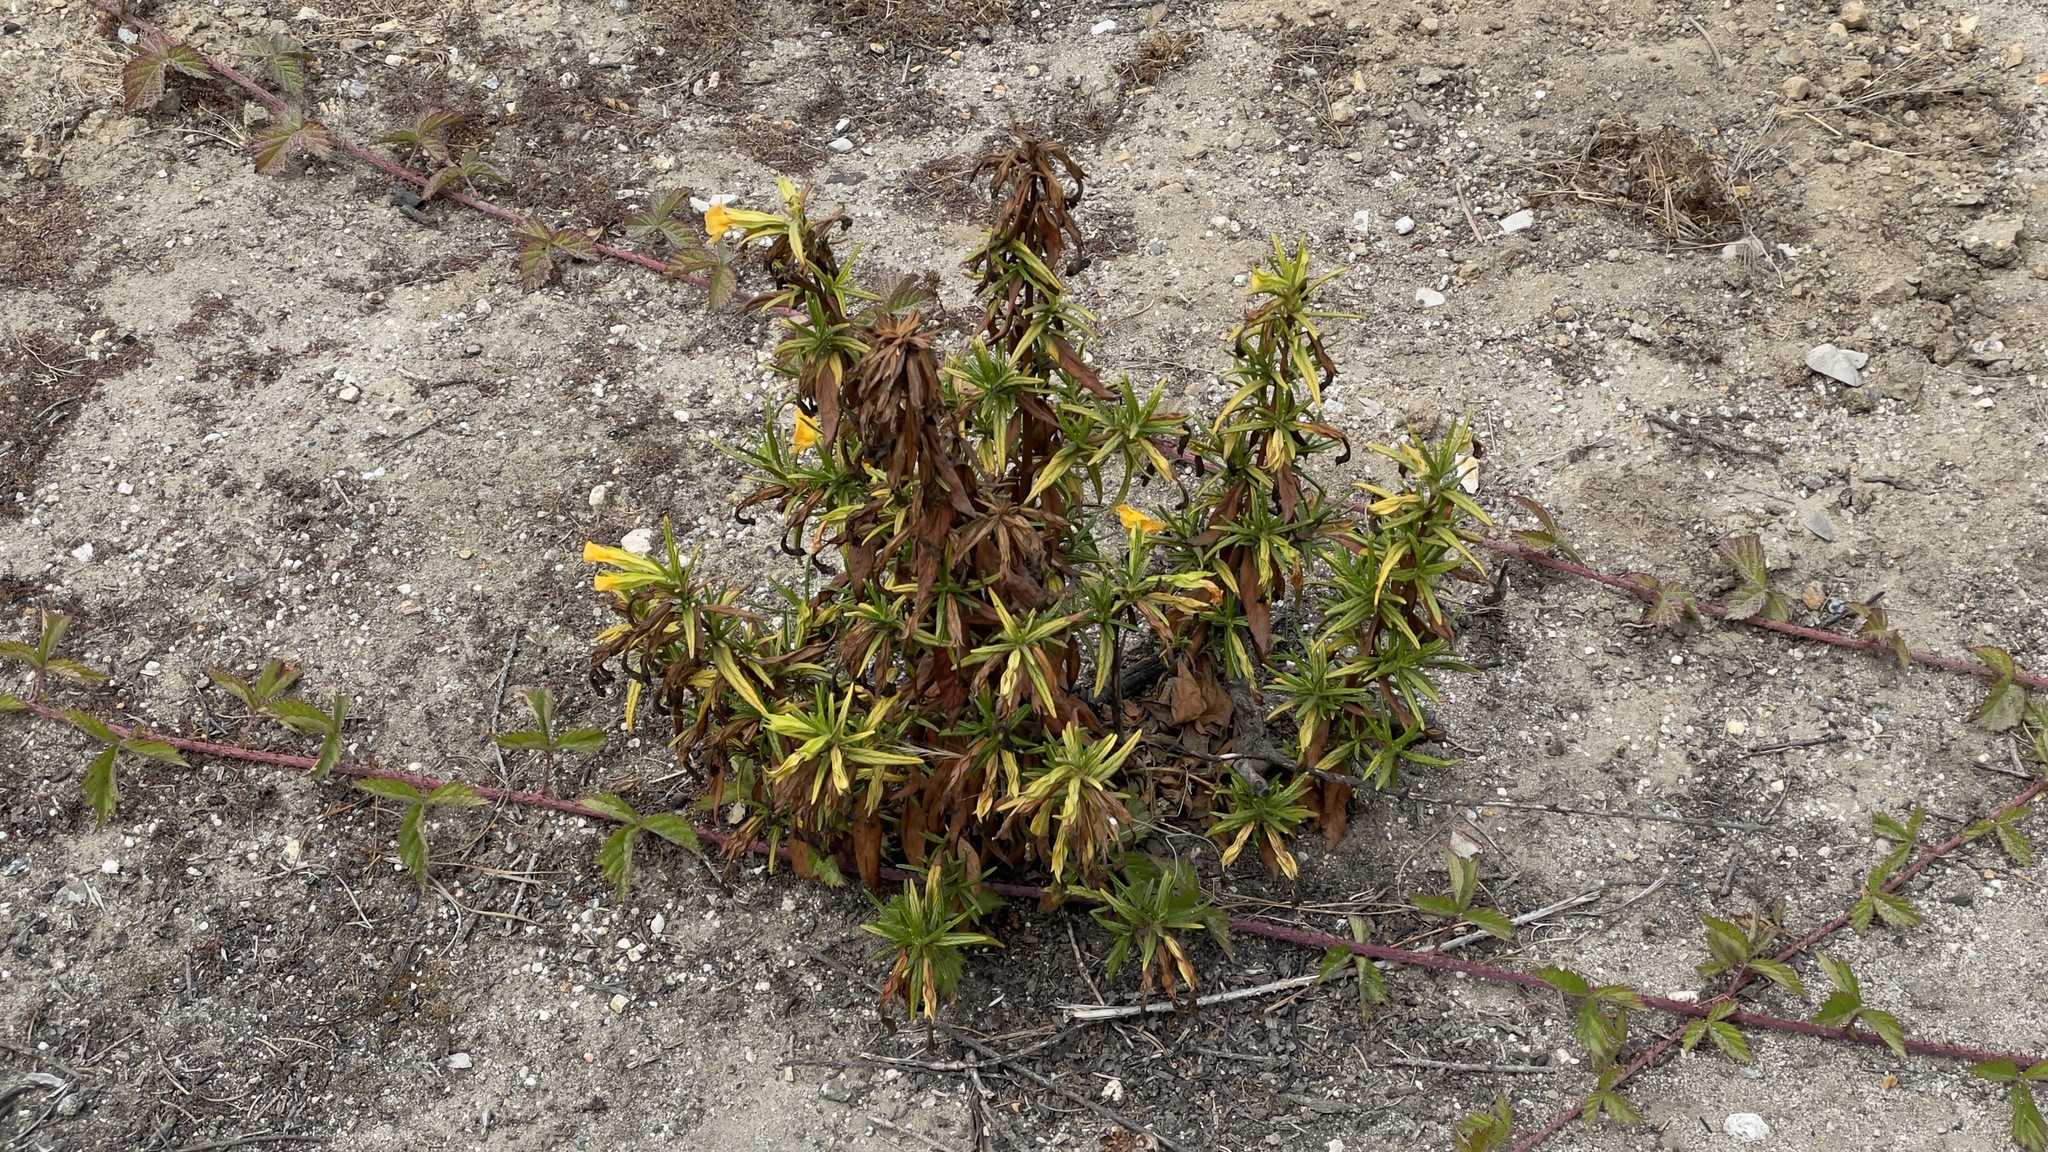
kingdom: Plantae
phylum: Tracheophyta
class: Magnoliopsida
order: Lamiales
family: Phrymaceae
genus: Diplacus
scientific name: Diplacus aurantiacus
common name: Bush monkey-flower
